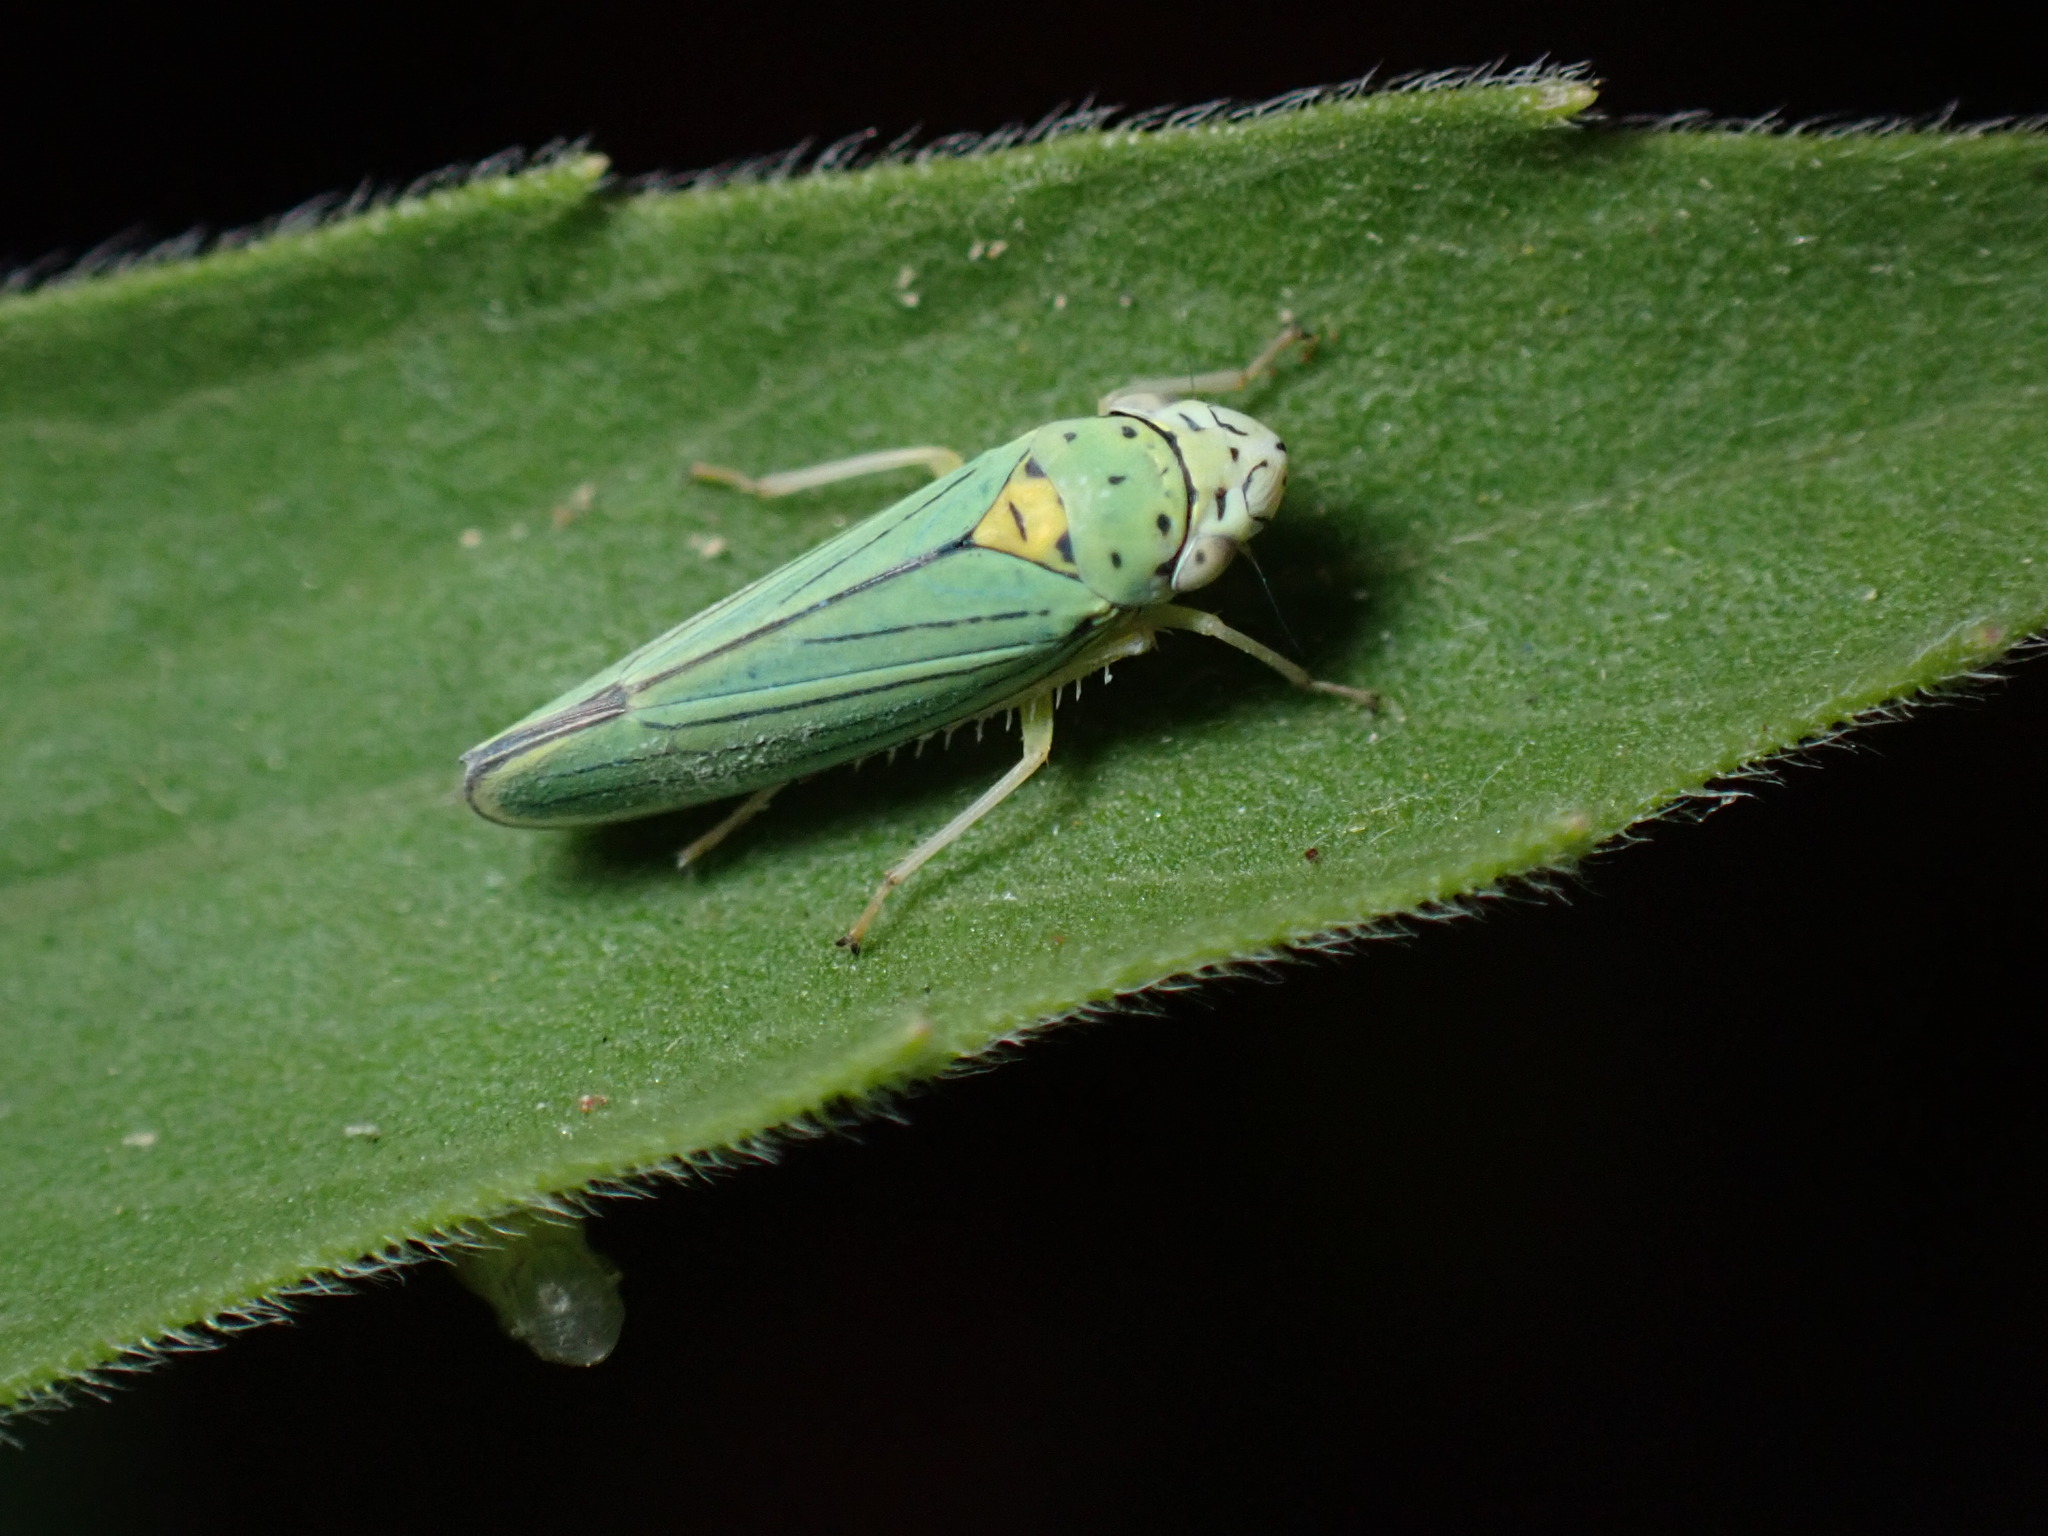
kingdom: Animalia
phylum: Arthropoda
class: Insecta
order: Hemiptera
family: Cicadellidae
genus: Graphocephala
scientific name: Graphocephala atropunctata
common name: Blue-green sharpshooter
